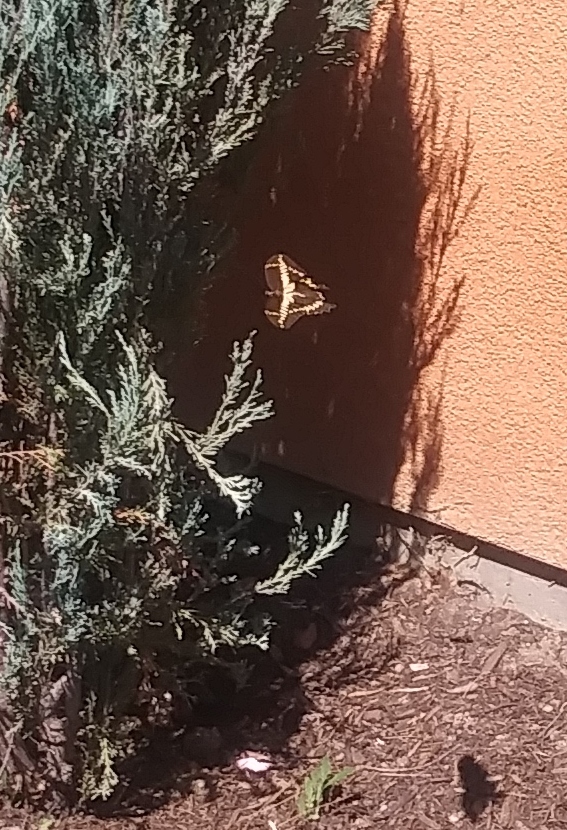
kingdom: Animalia
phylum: Arthropoda
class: Insecta
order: Lepidoptera
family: Papilionidae
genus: Papilio
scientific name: Papilio rumiko
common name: Western giant swallowtail
